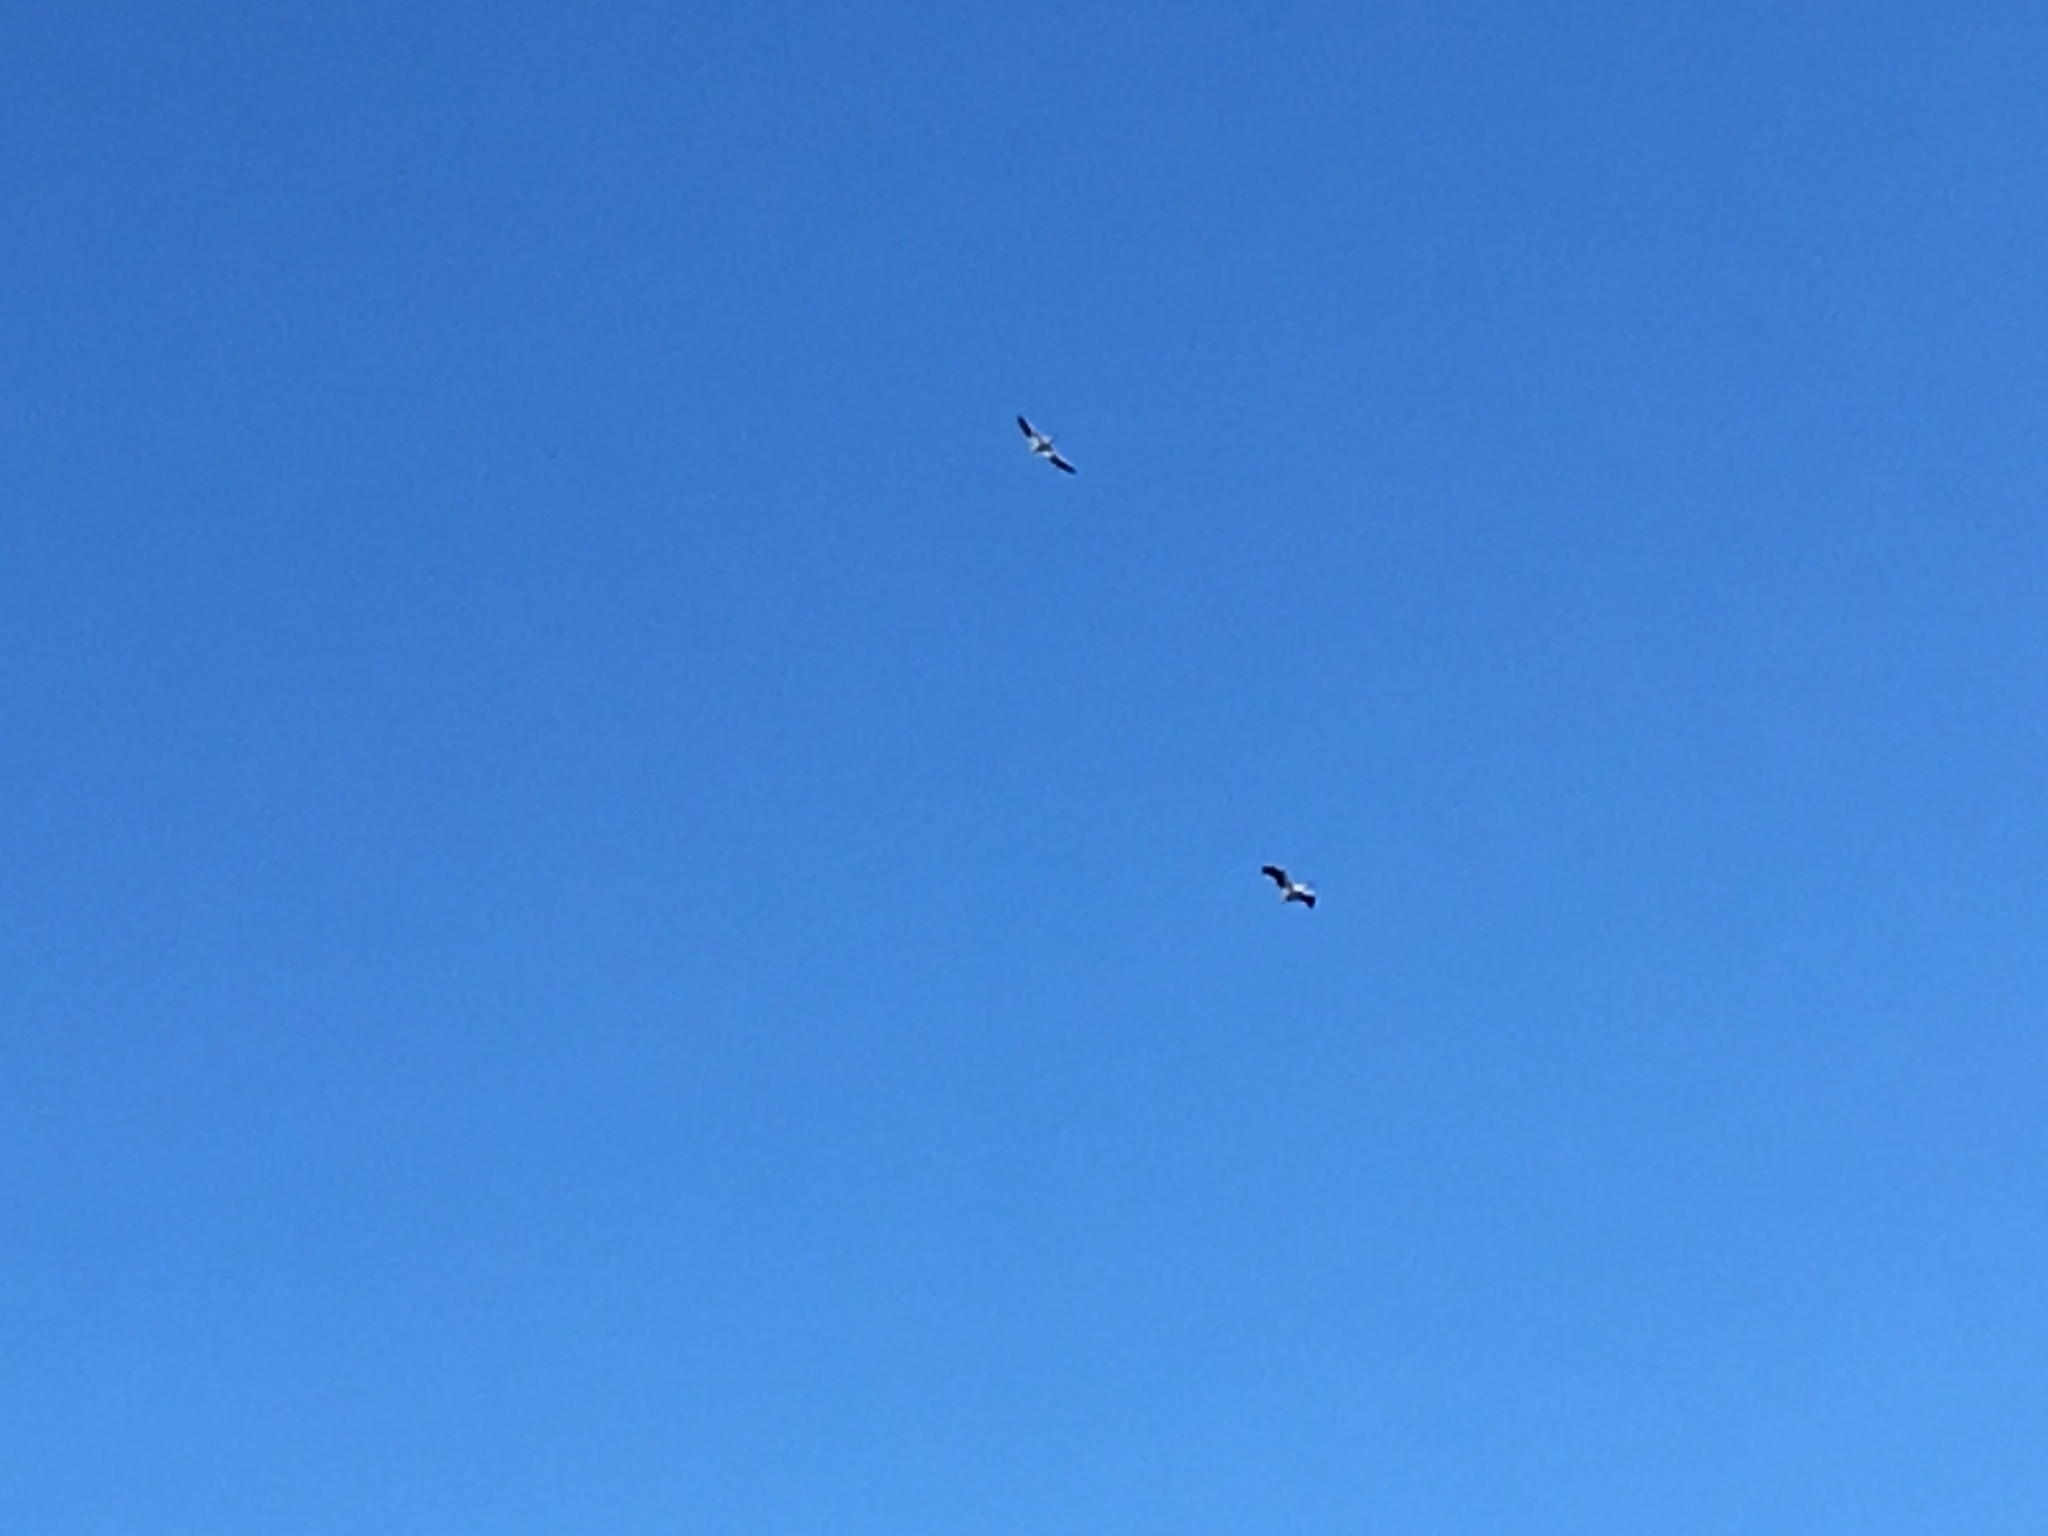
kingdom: Animalia
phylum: Chordata
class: Aves
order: Pelecaniformes
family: Pelecanidae
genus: Pelecanus
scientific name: Pelecanus erythrorhynchos
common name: American white pelican
